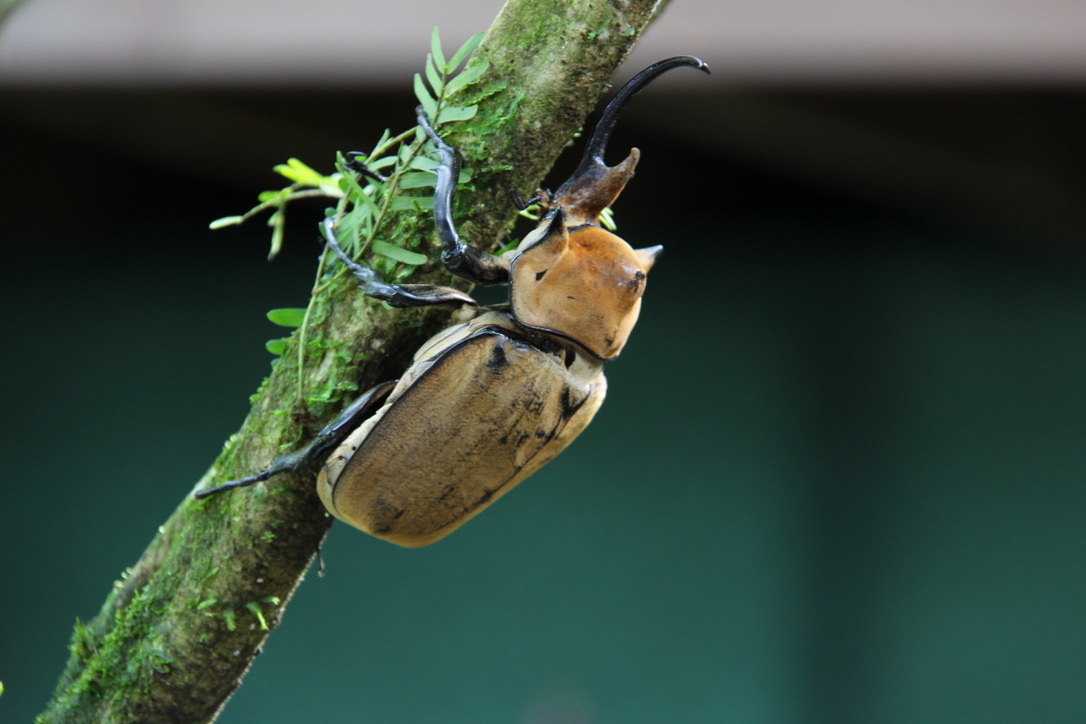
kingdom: Animalia
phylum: Arthropoda
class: Insecta
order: Coleoptera
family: Scarabaeidae
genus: Megasoma
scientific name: Megasoma elephas
